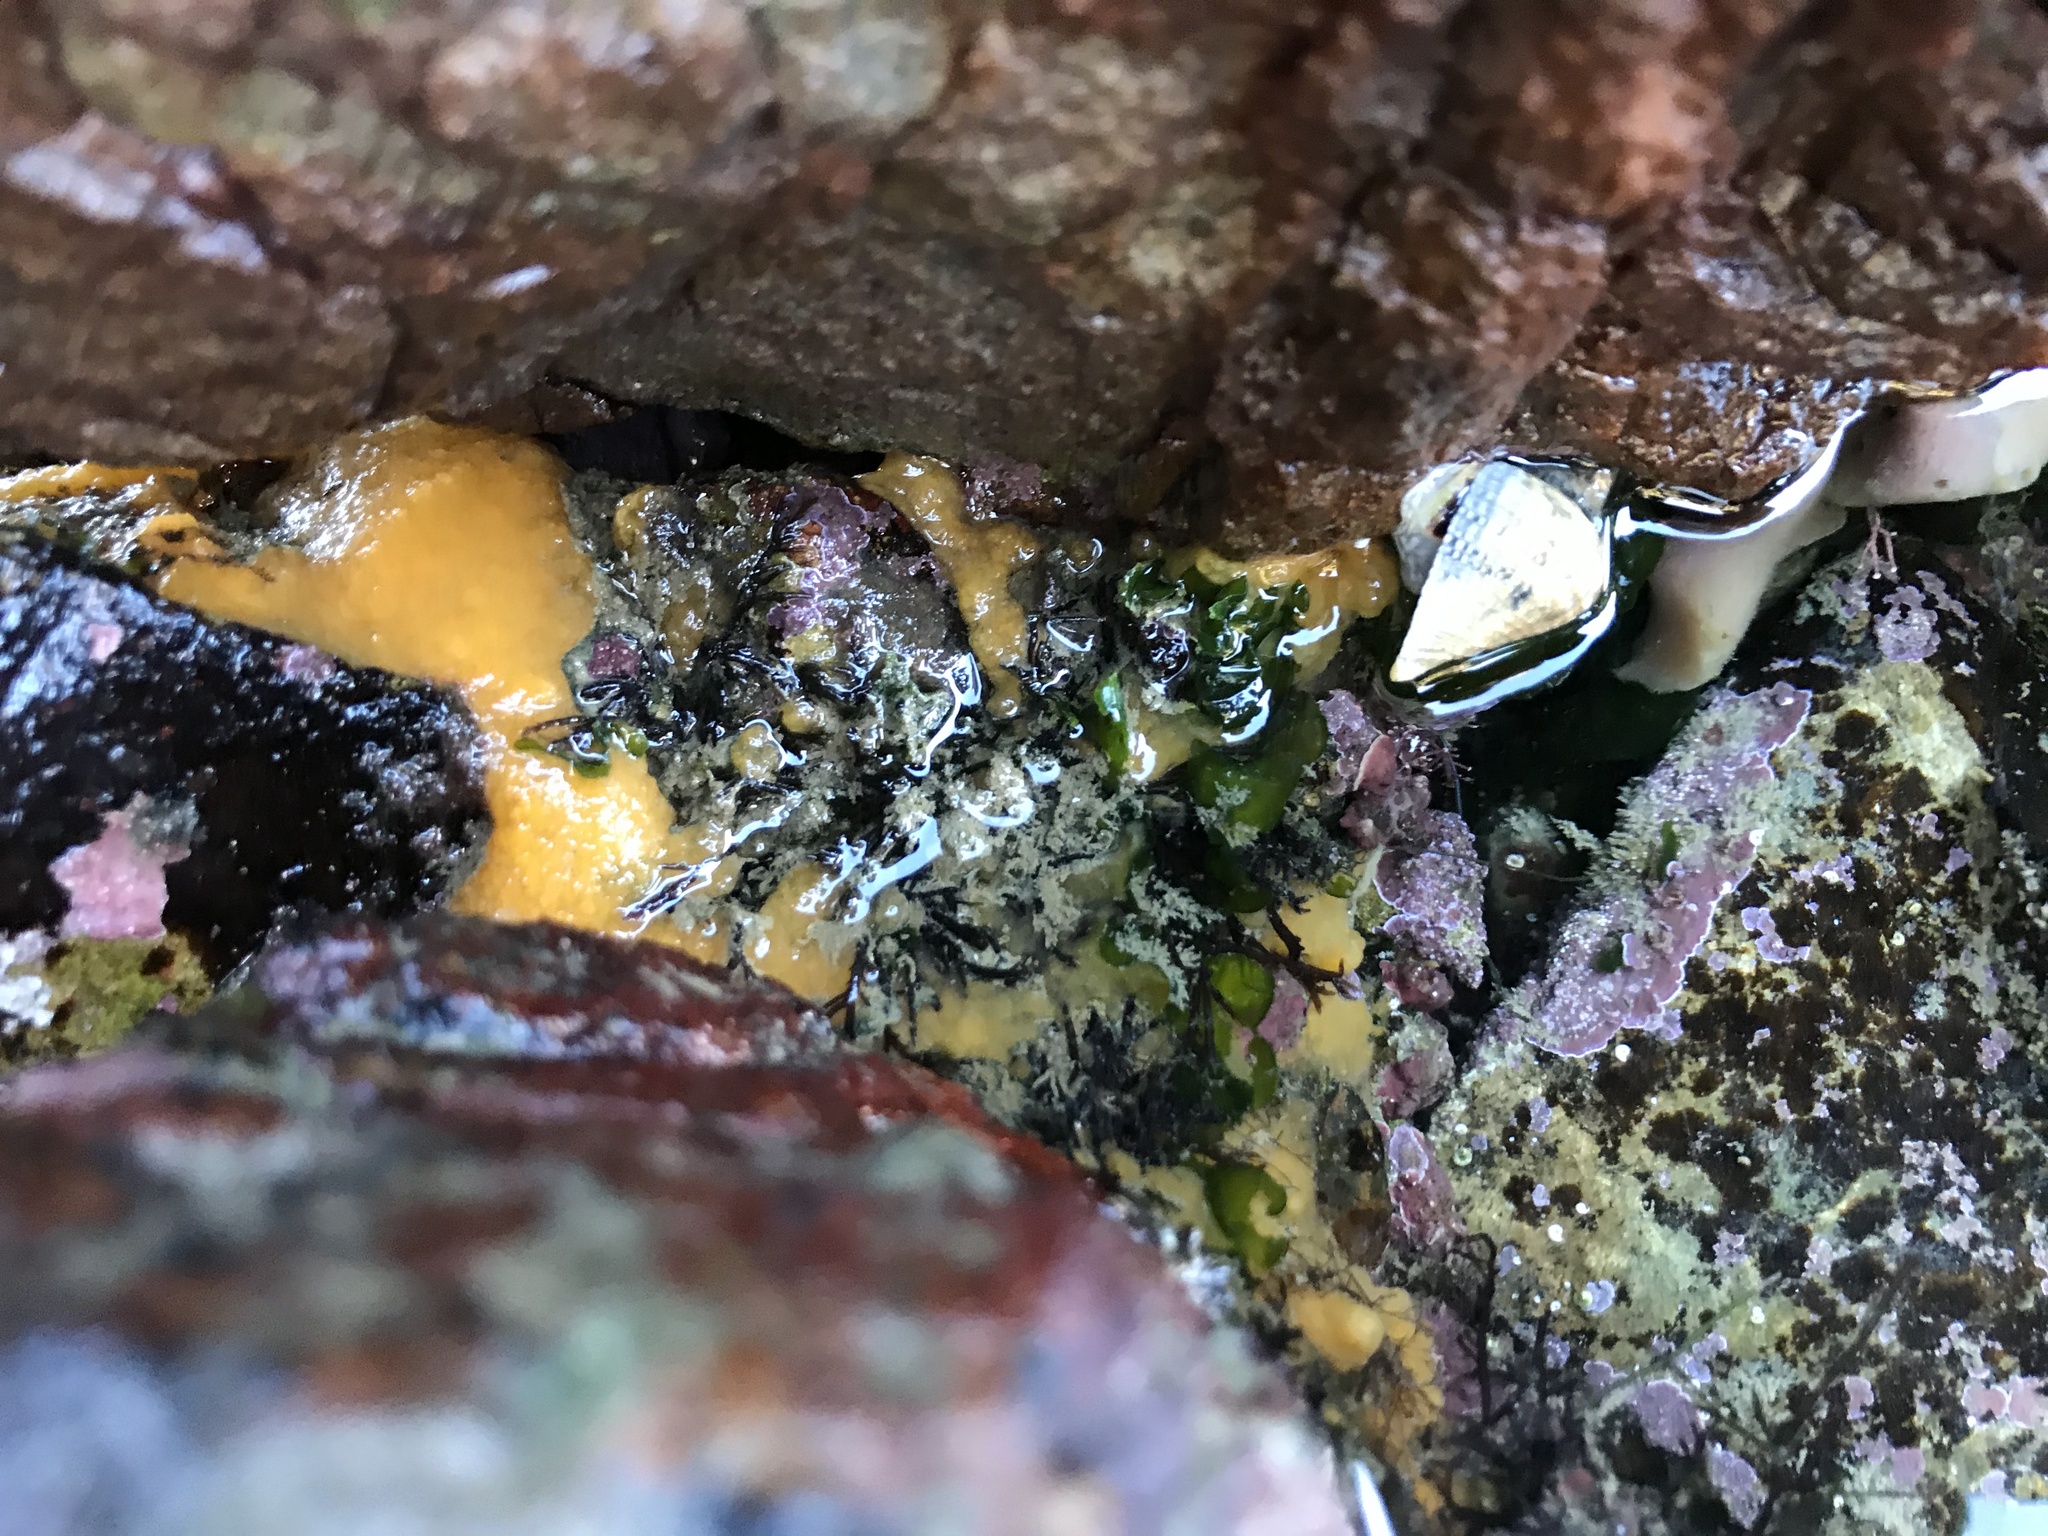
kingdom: Animalia
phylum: Porifera
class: Demospongiae
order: Suberitida
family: Halichondriidae
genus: Halichondria
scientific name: Halichondria moorei
